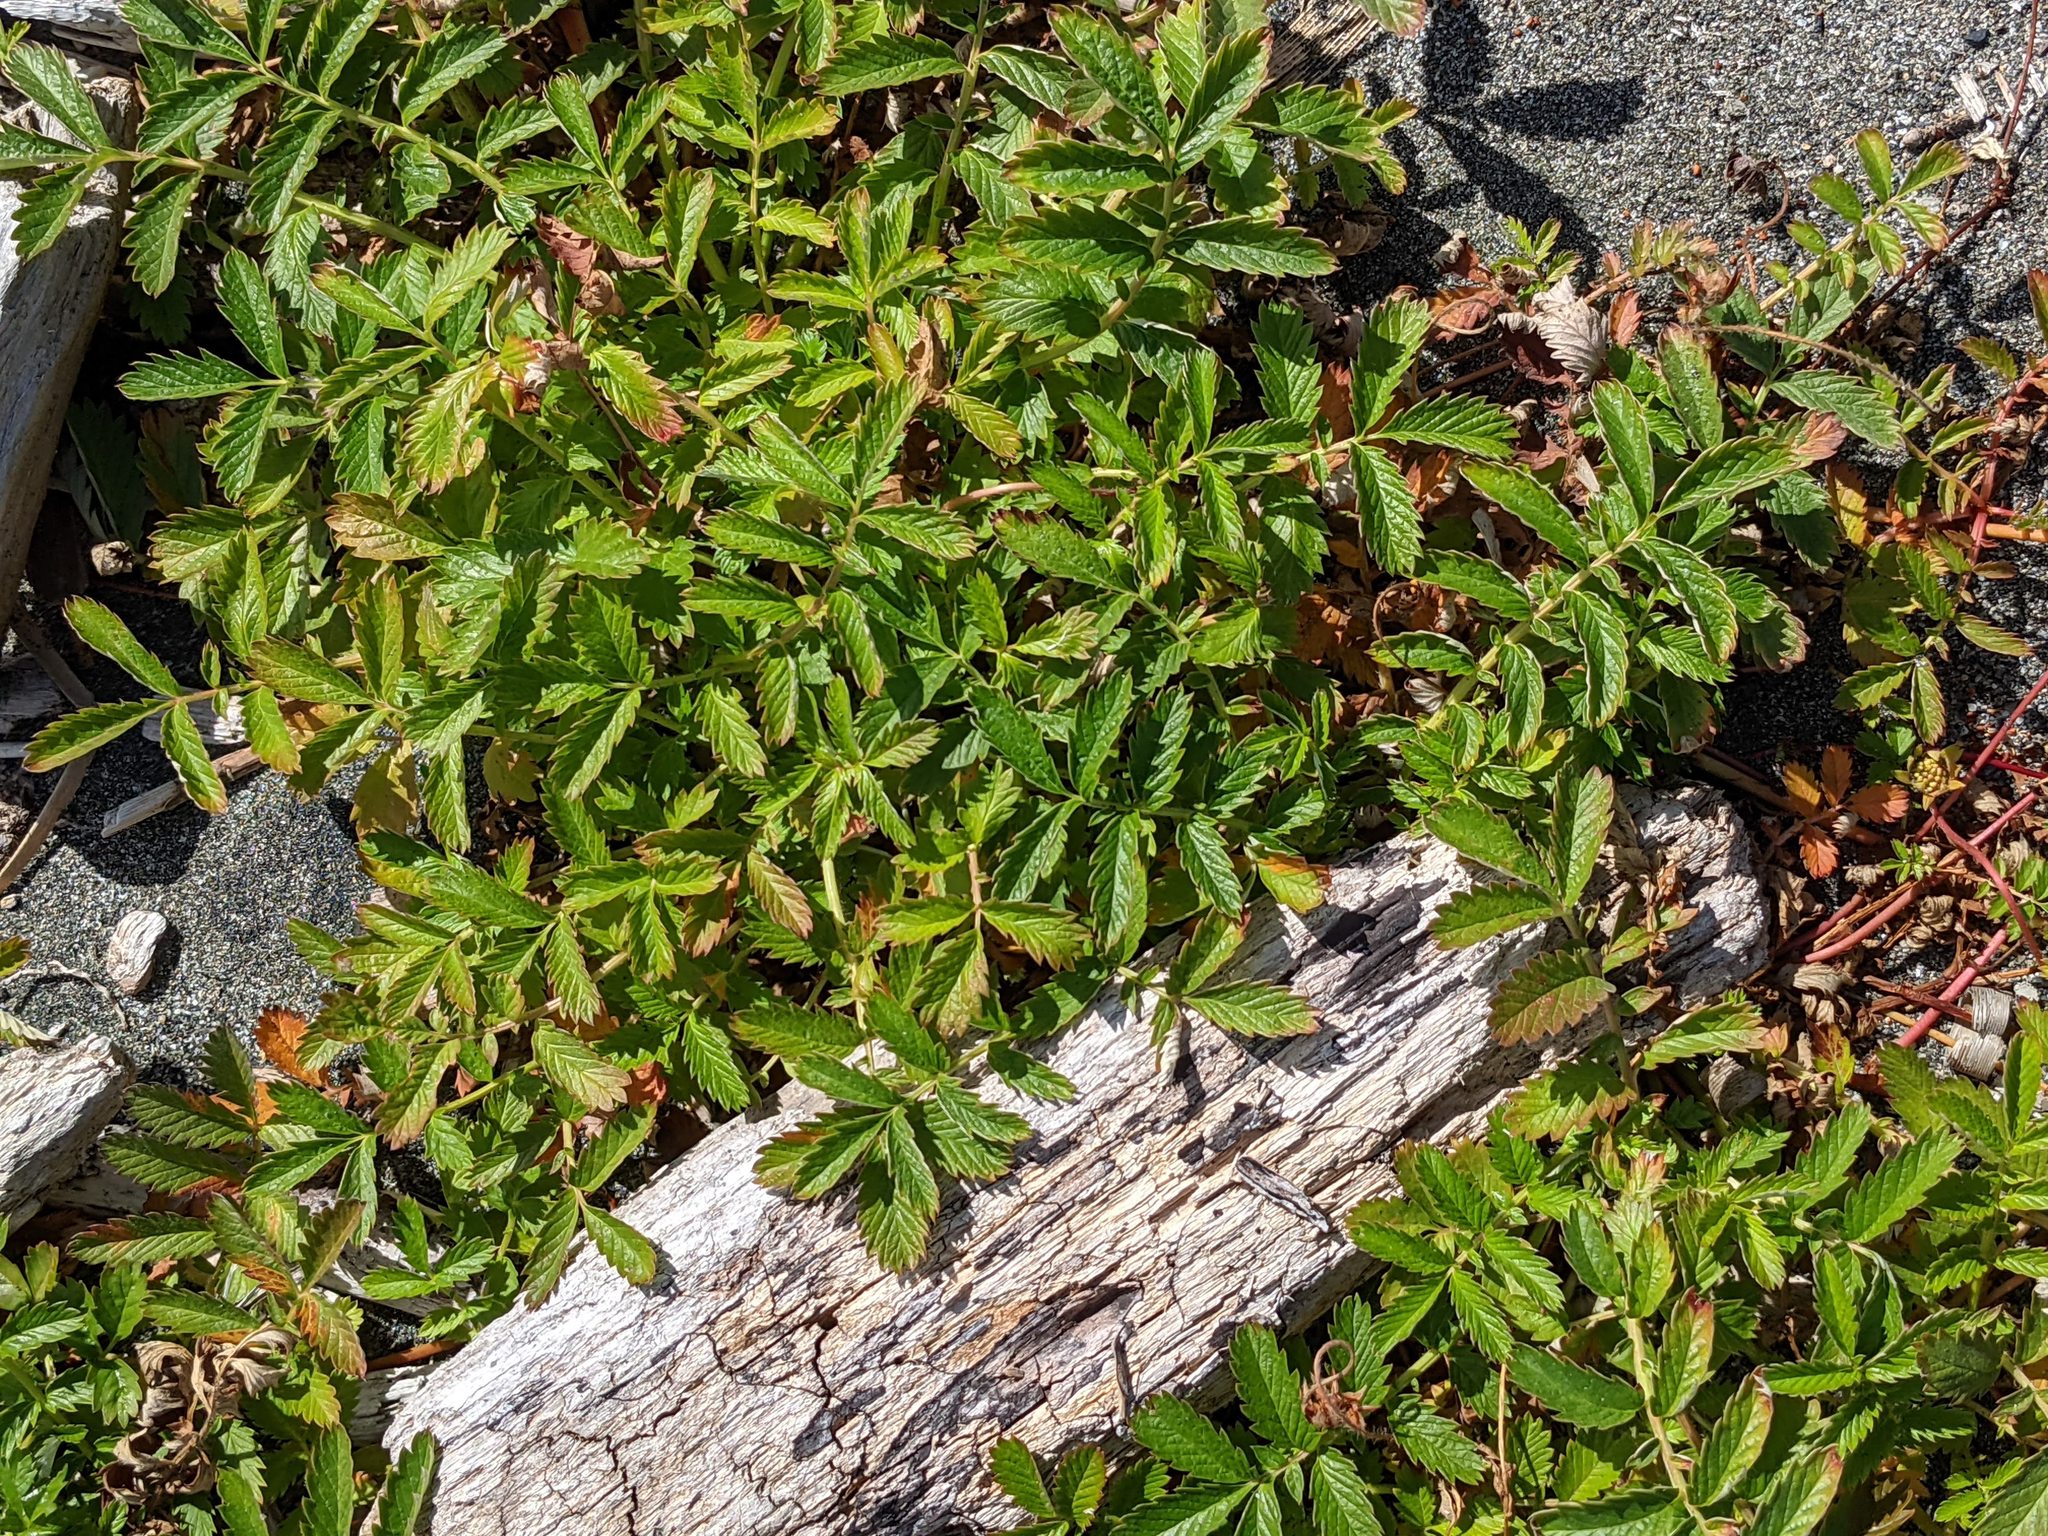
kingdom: Plantae
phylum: Tracheophyta
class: Magnoliopsida
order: Rosales
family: Rosaceae
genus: Argentina
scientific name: Argentina anserina
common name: Common silverweed
